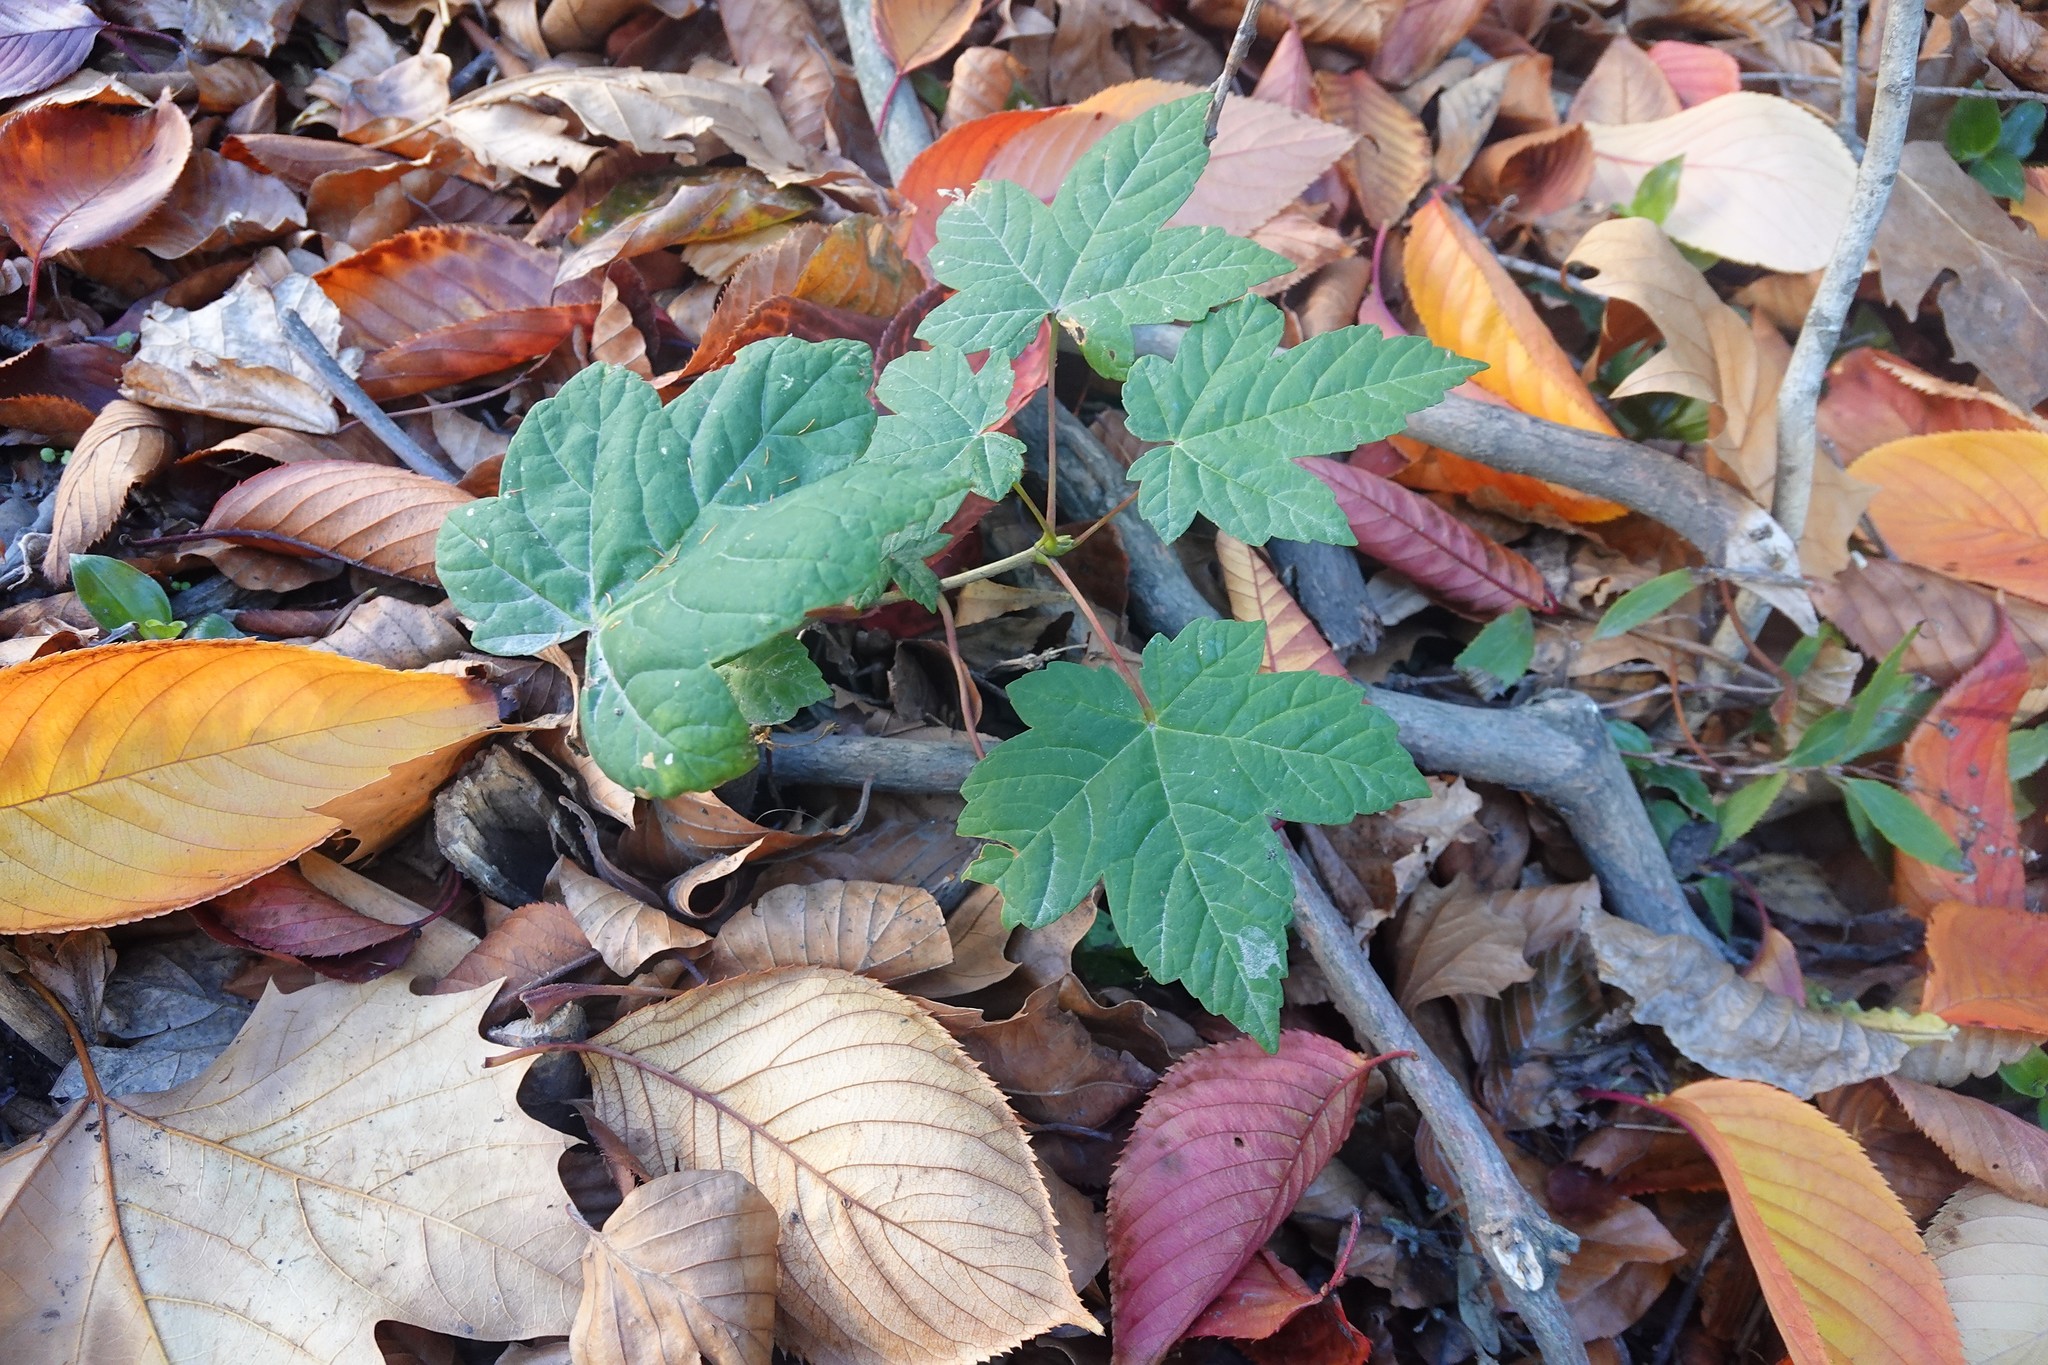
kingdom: Plantae
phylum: Tracheophyta
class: Magnoliopsida
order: Sapindales
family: Sapindaceae
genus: Acer
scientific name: Acer pseudoplatanus
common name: Sycamore
